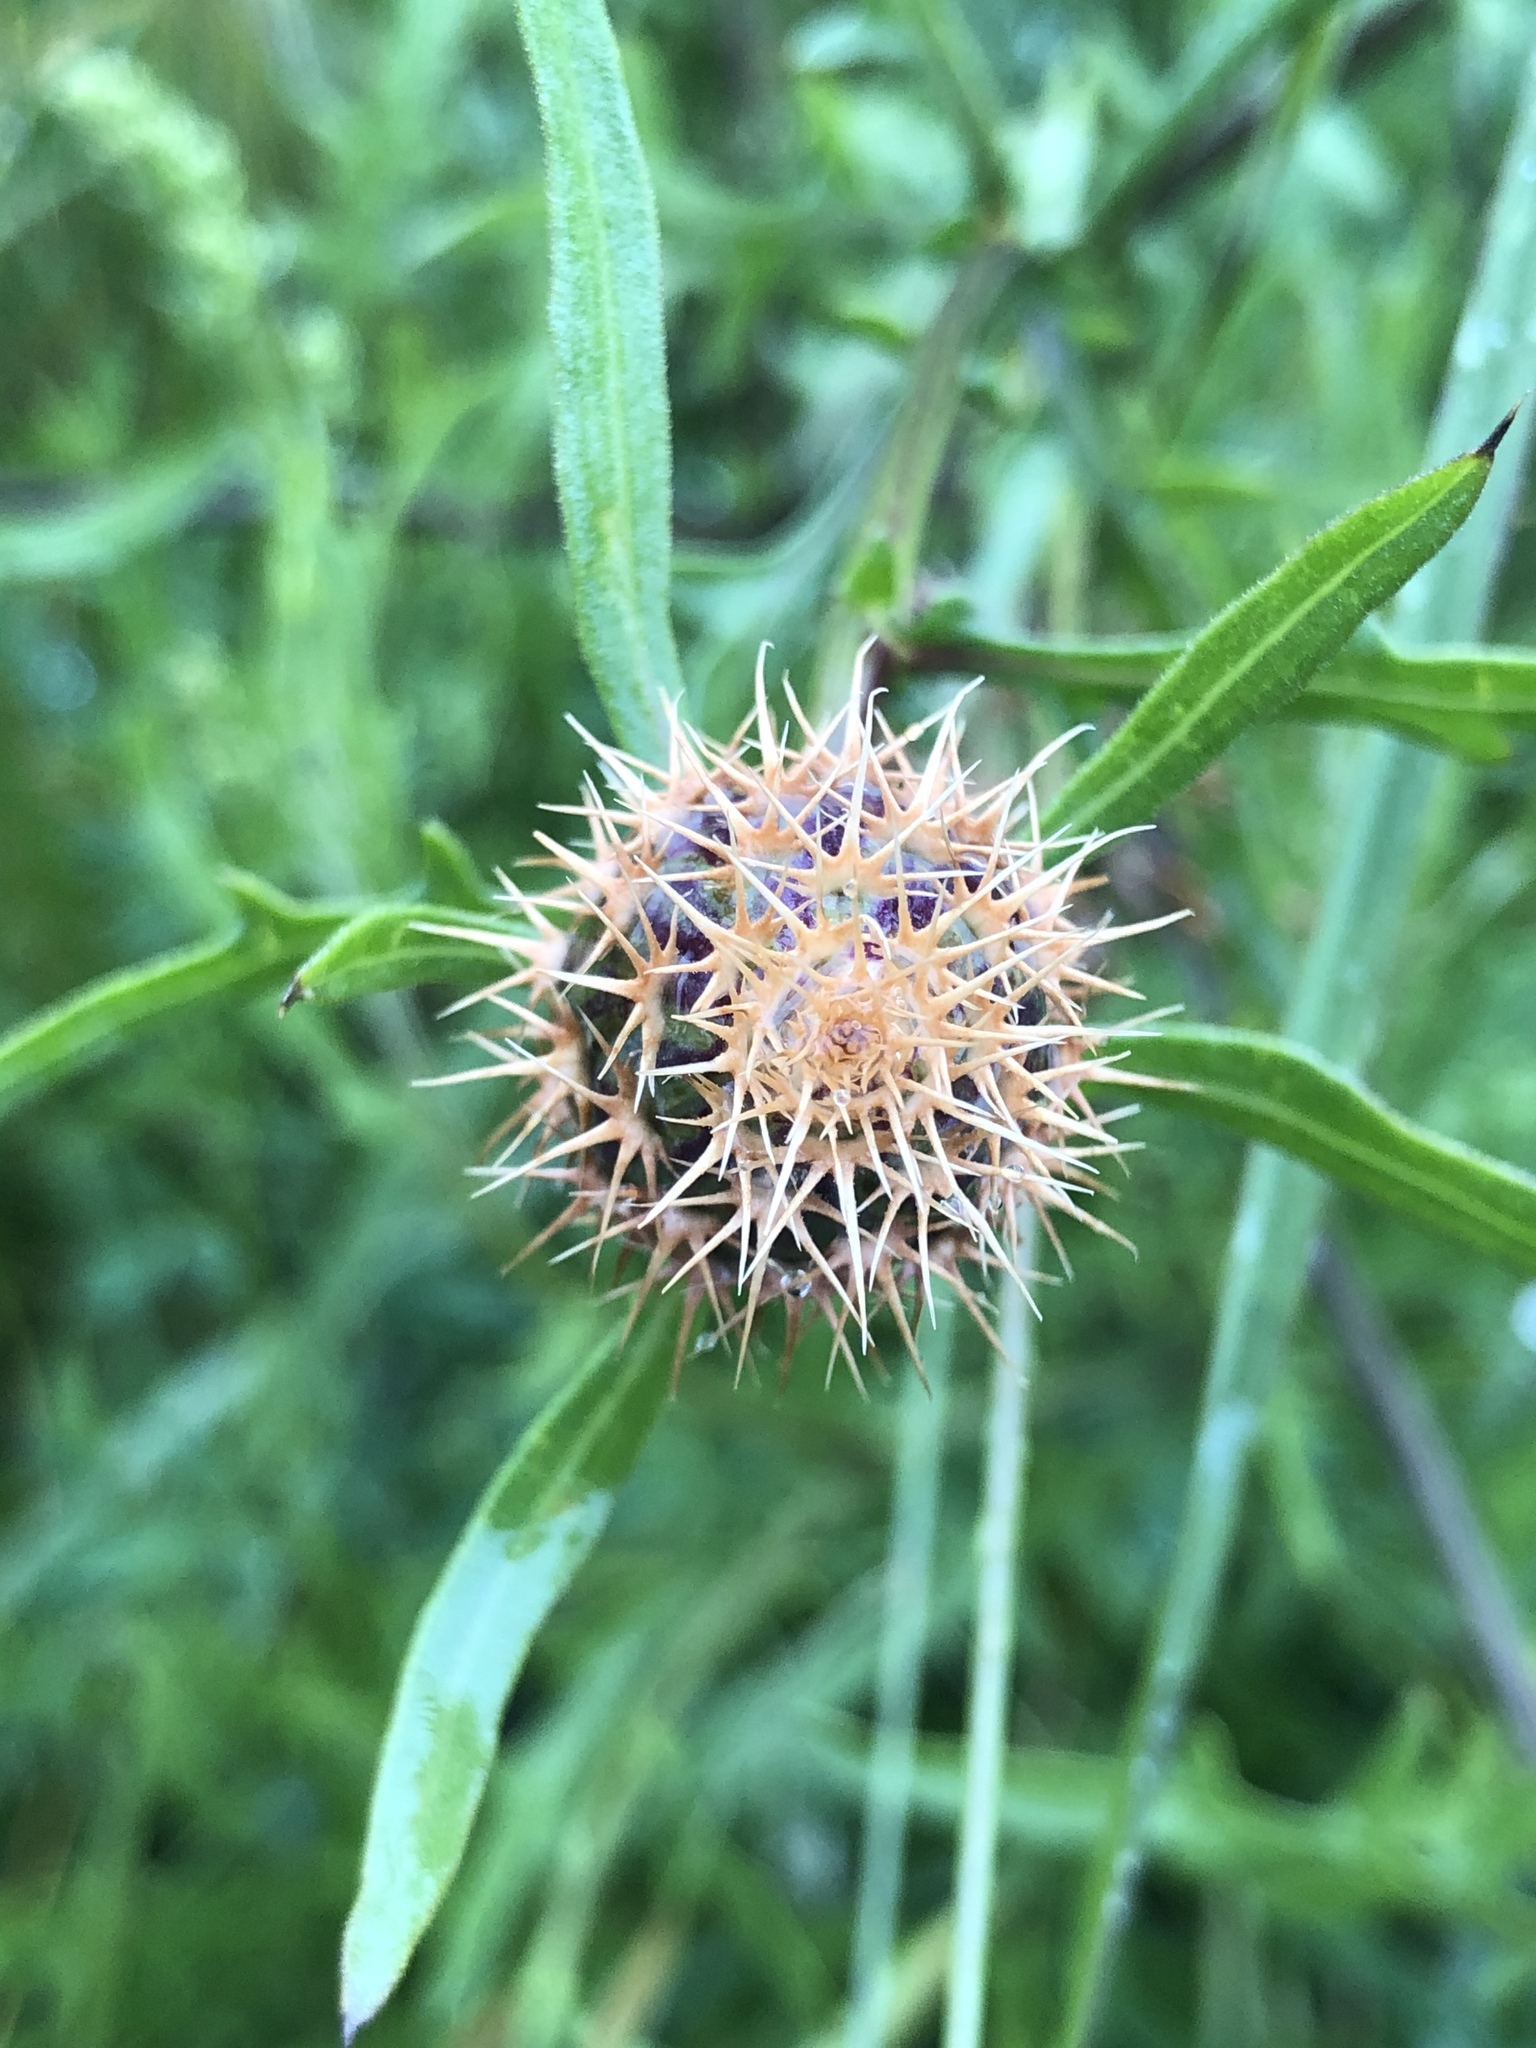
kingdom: Plantae
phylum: Tracheophyta
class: Magnoliopsida
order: Asterales
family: Asteraceae
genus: Centaurea
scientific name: Centaurea aspera
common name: Rough star-thistle
